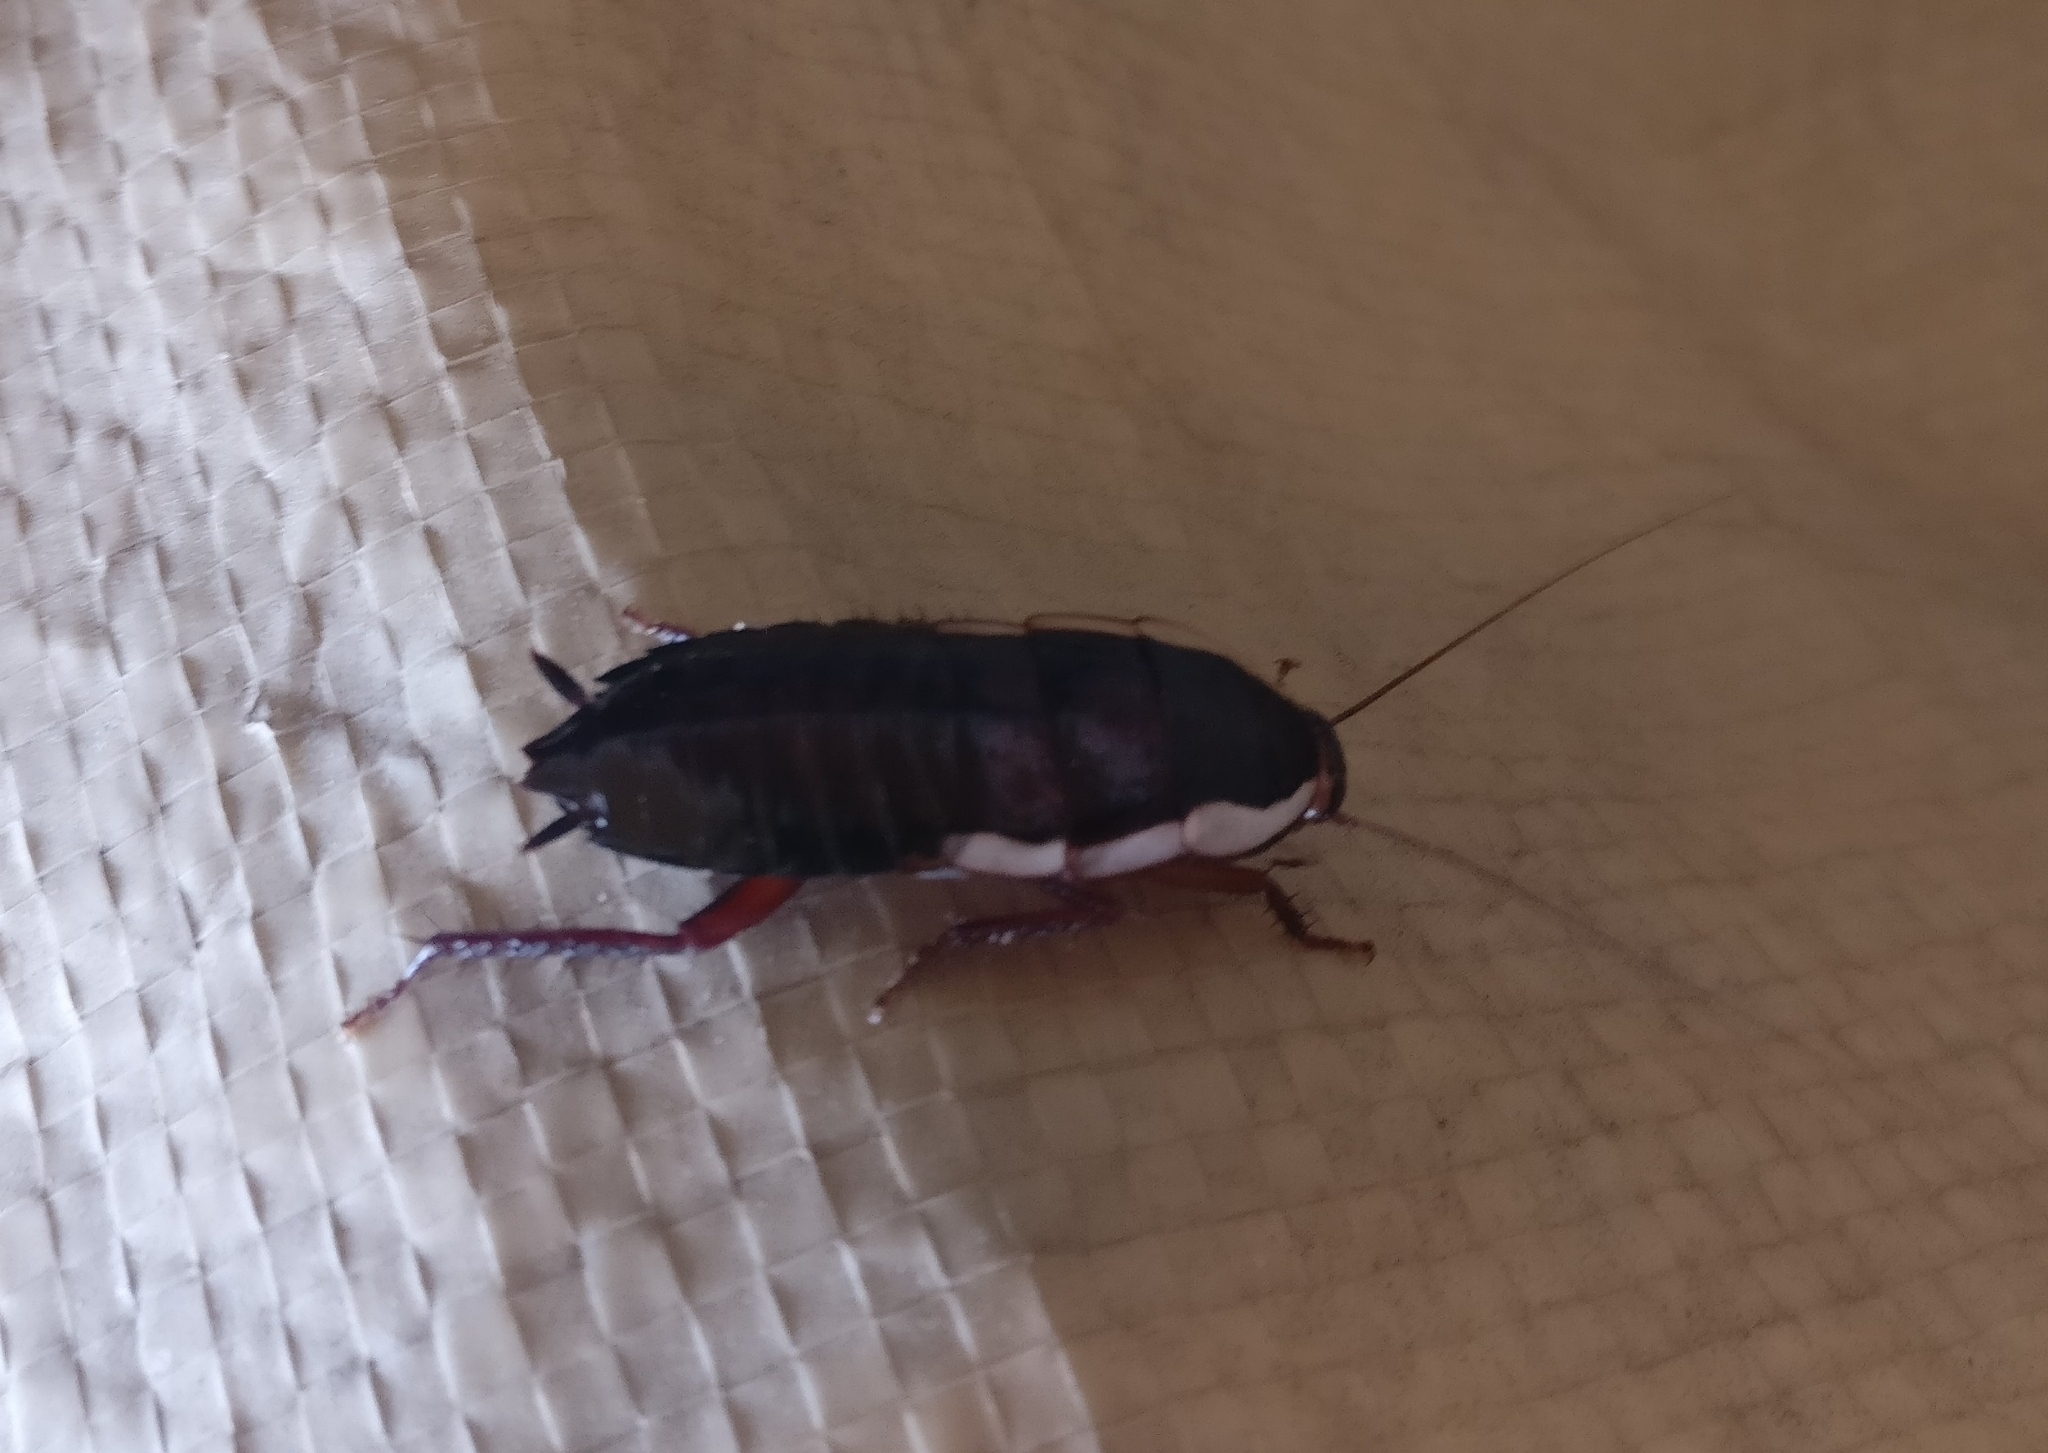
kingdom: Animalia
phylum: Arthropoda
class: Insecta
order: Blattodea
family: Blattidae
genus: Drymaplaneta
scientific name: Drymaplaneta semivitta
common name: Gisborne cockroach
